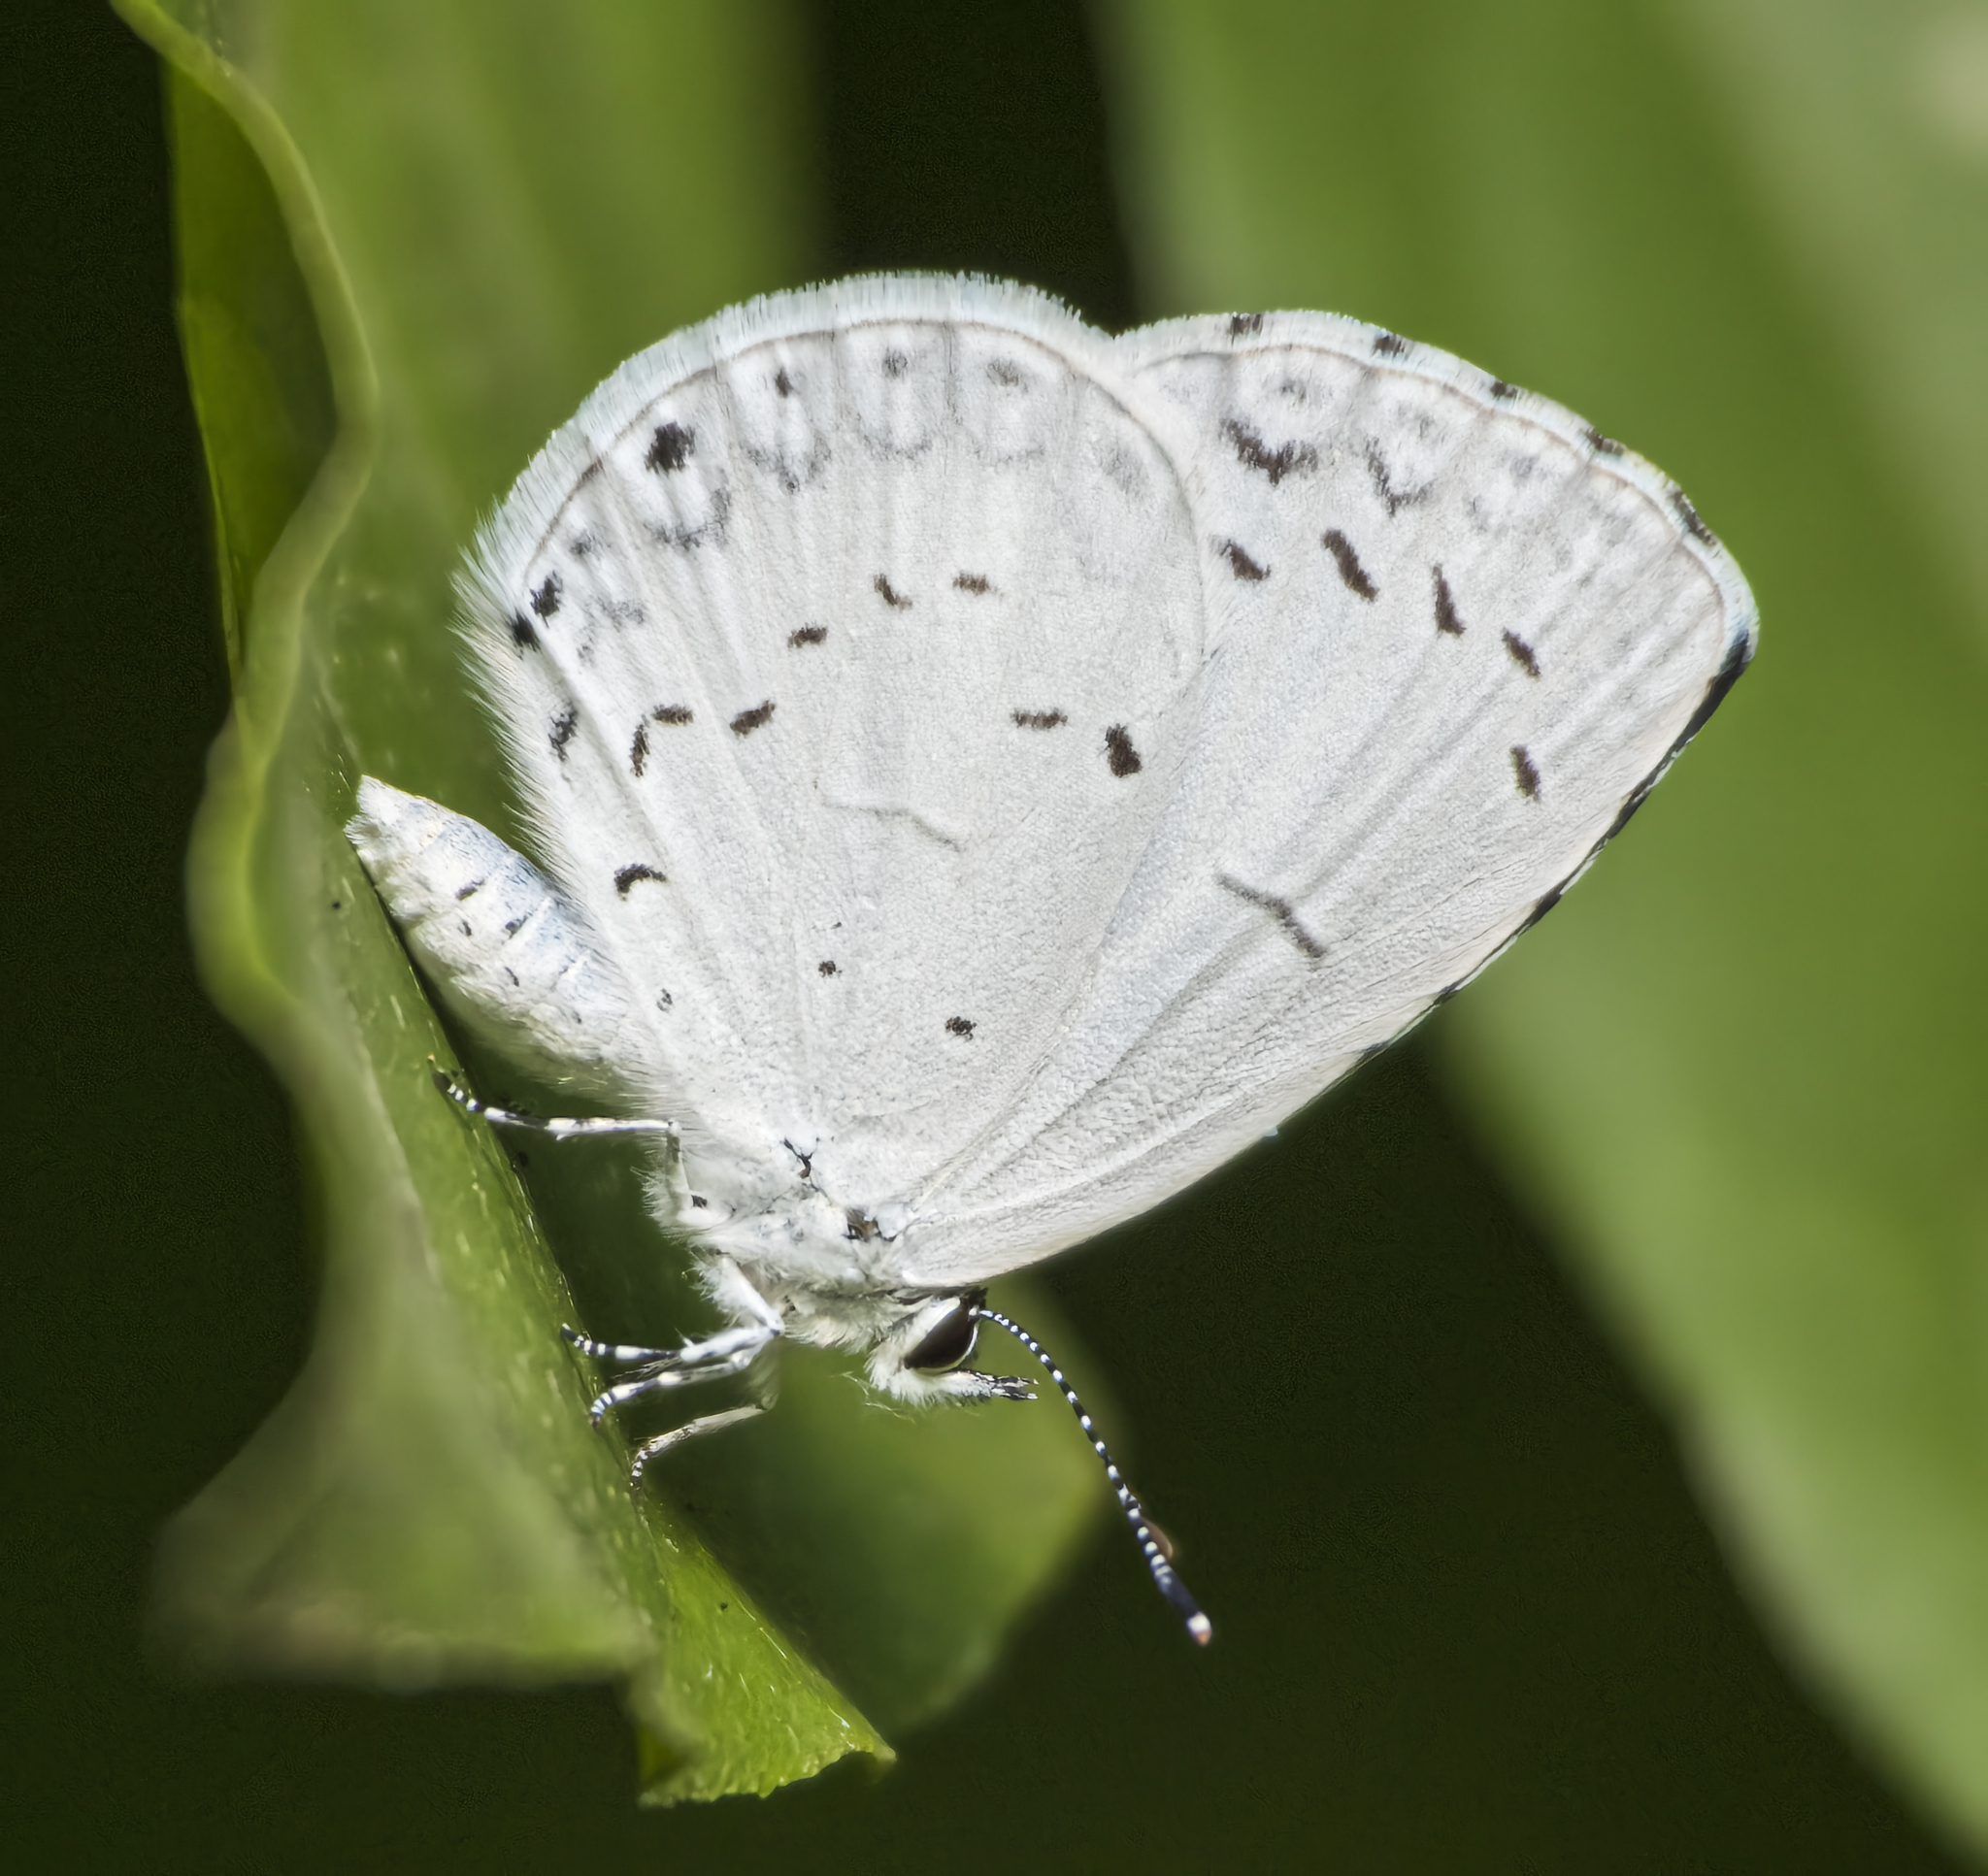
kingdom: Animalia
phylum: Arthropoda
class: Insecta
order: Lepidoptera
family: Lycaenidae
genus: Cyaniris
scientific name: Cyaniris neglecta
